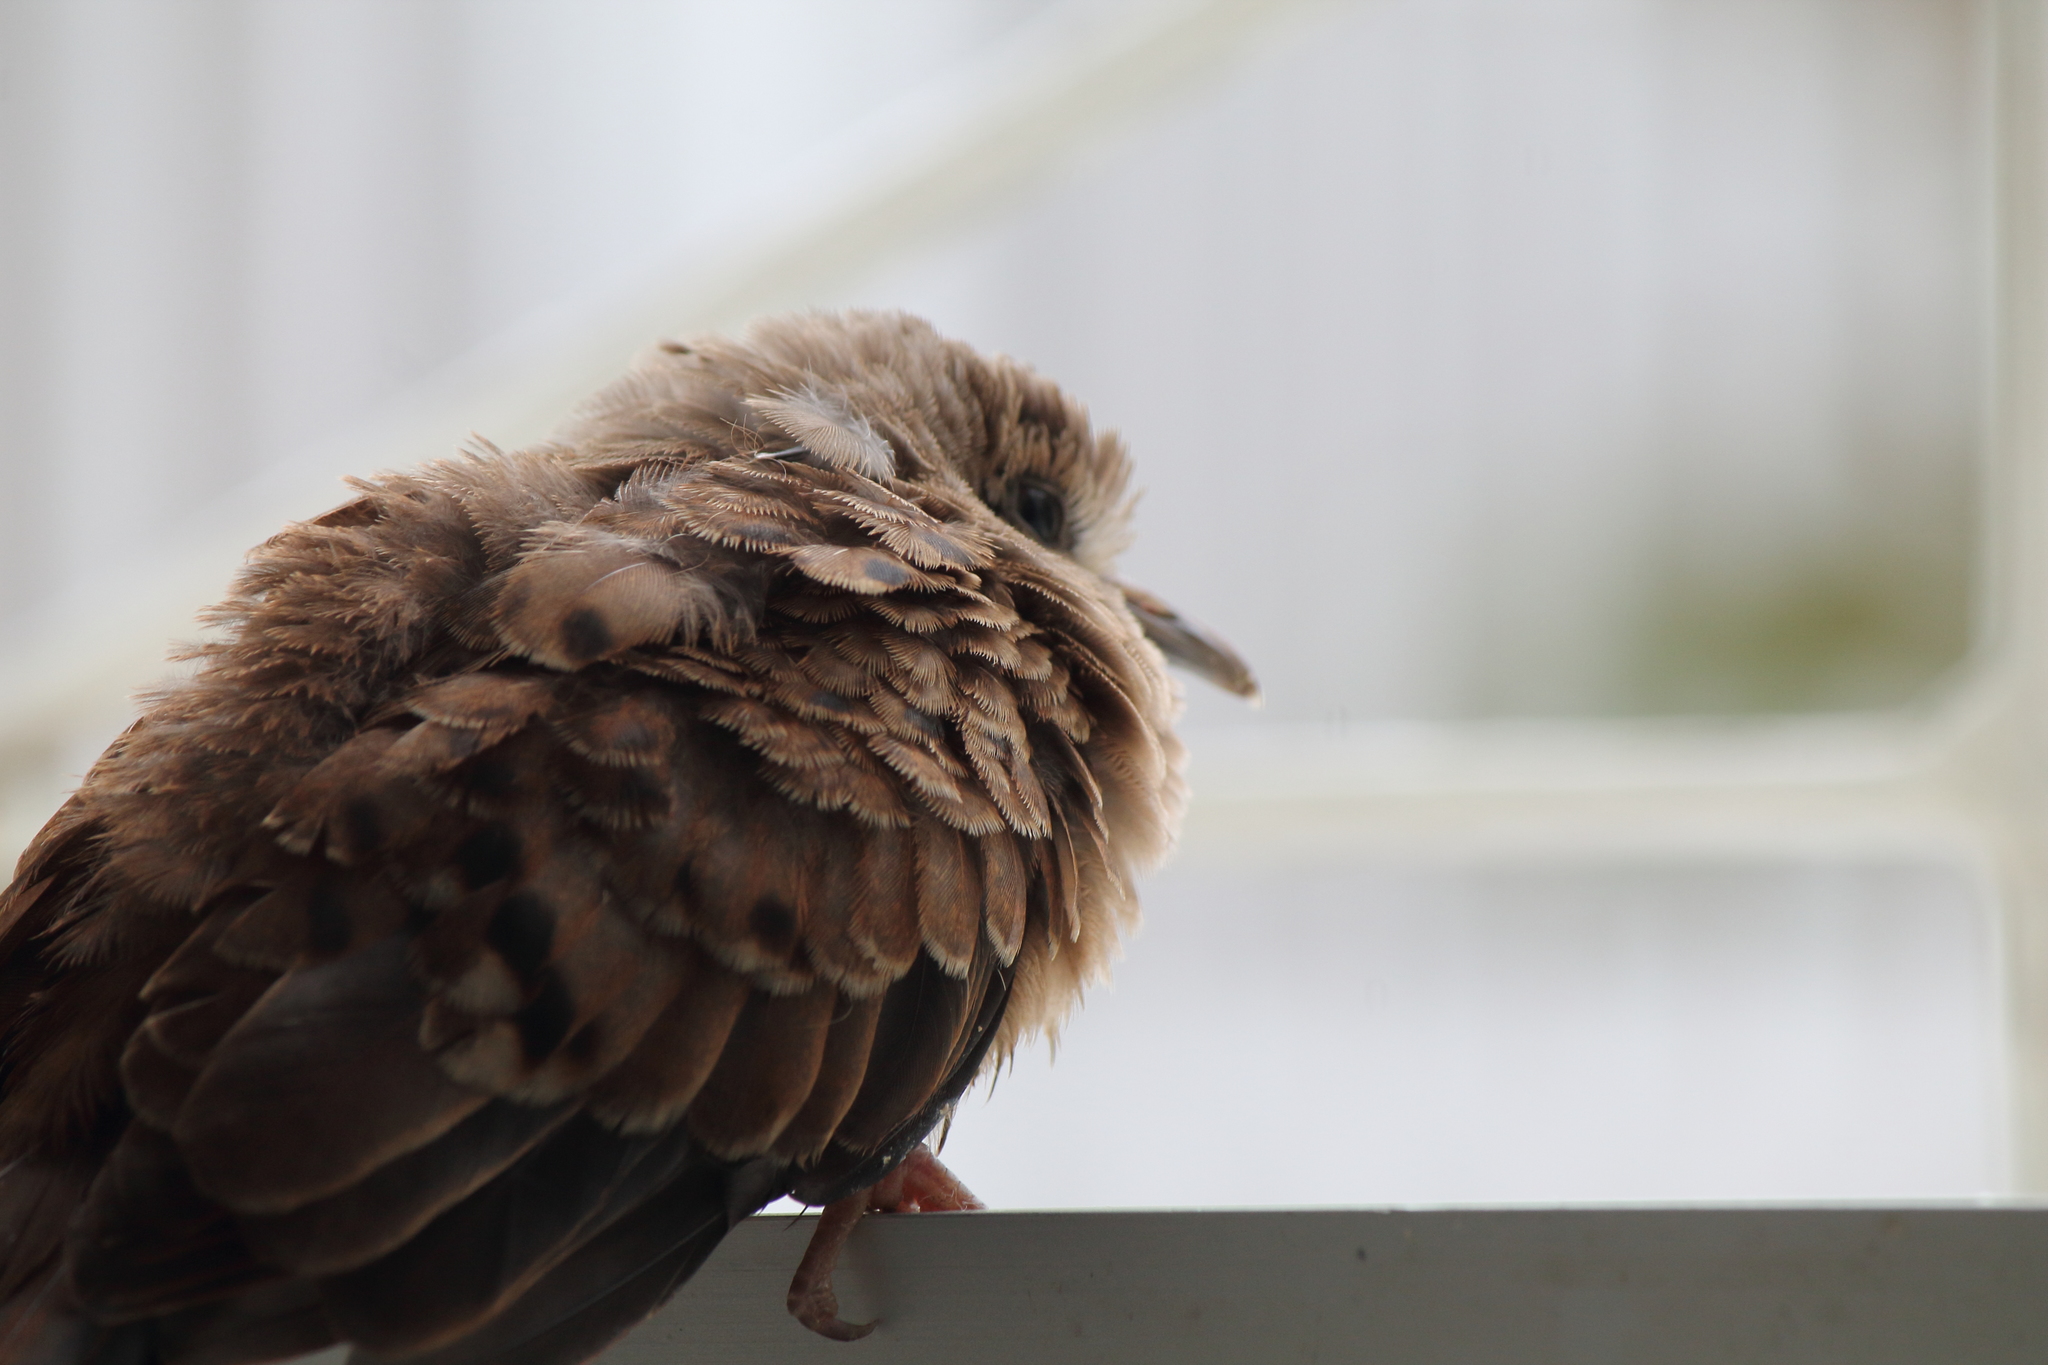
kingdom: Animalia
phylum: Chordata
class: Aves
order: Columbiformes
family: Columbidae
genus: Columbina
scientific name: Columbina talpacoti
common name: Ruddy ground dove
